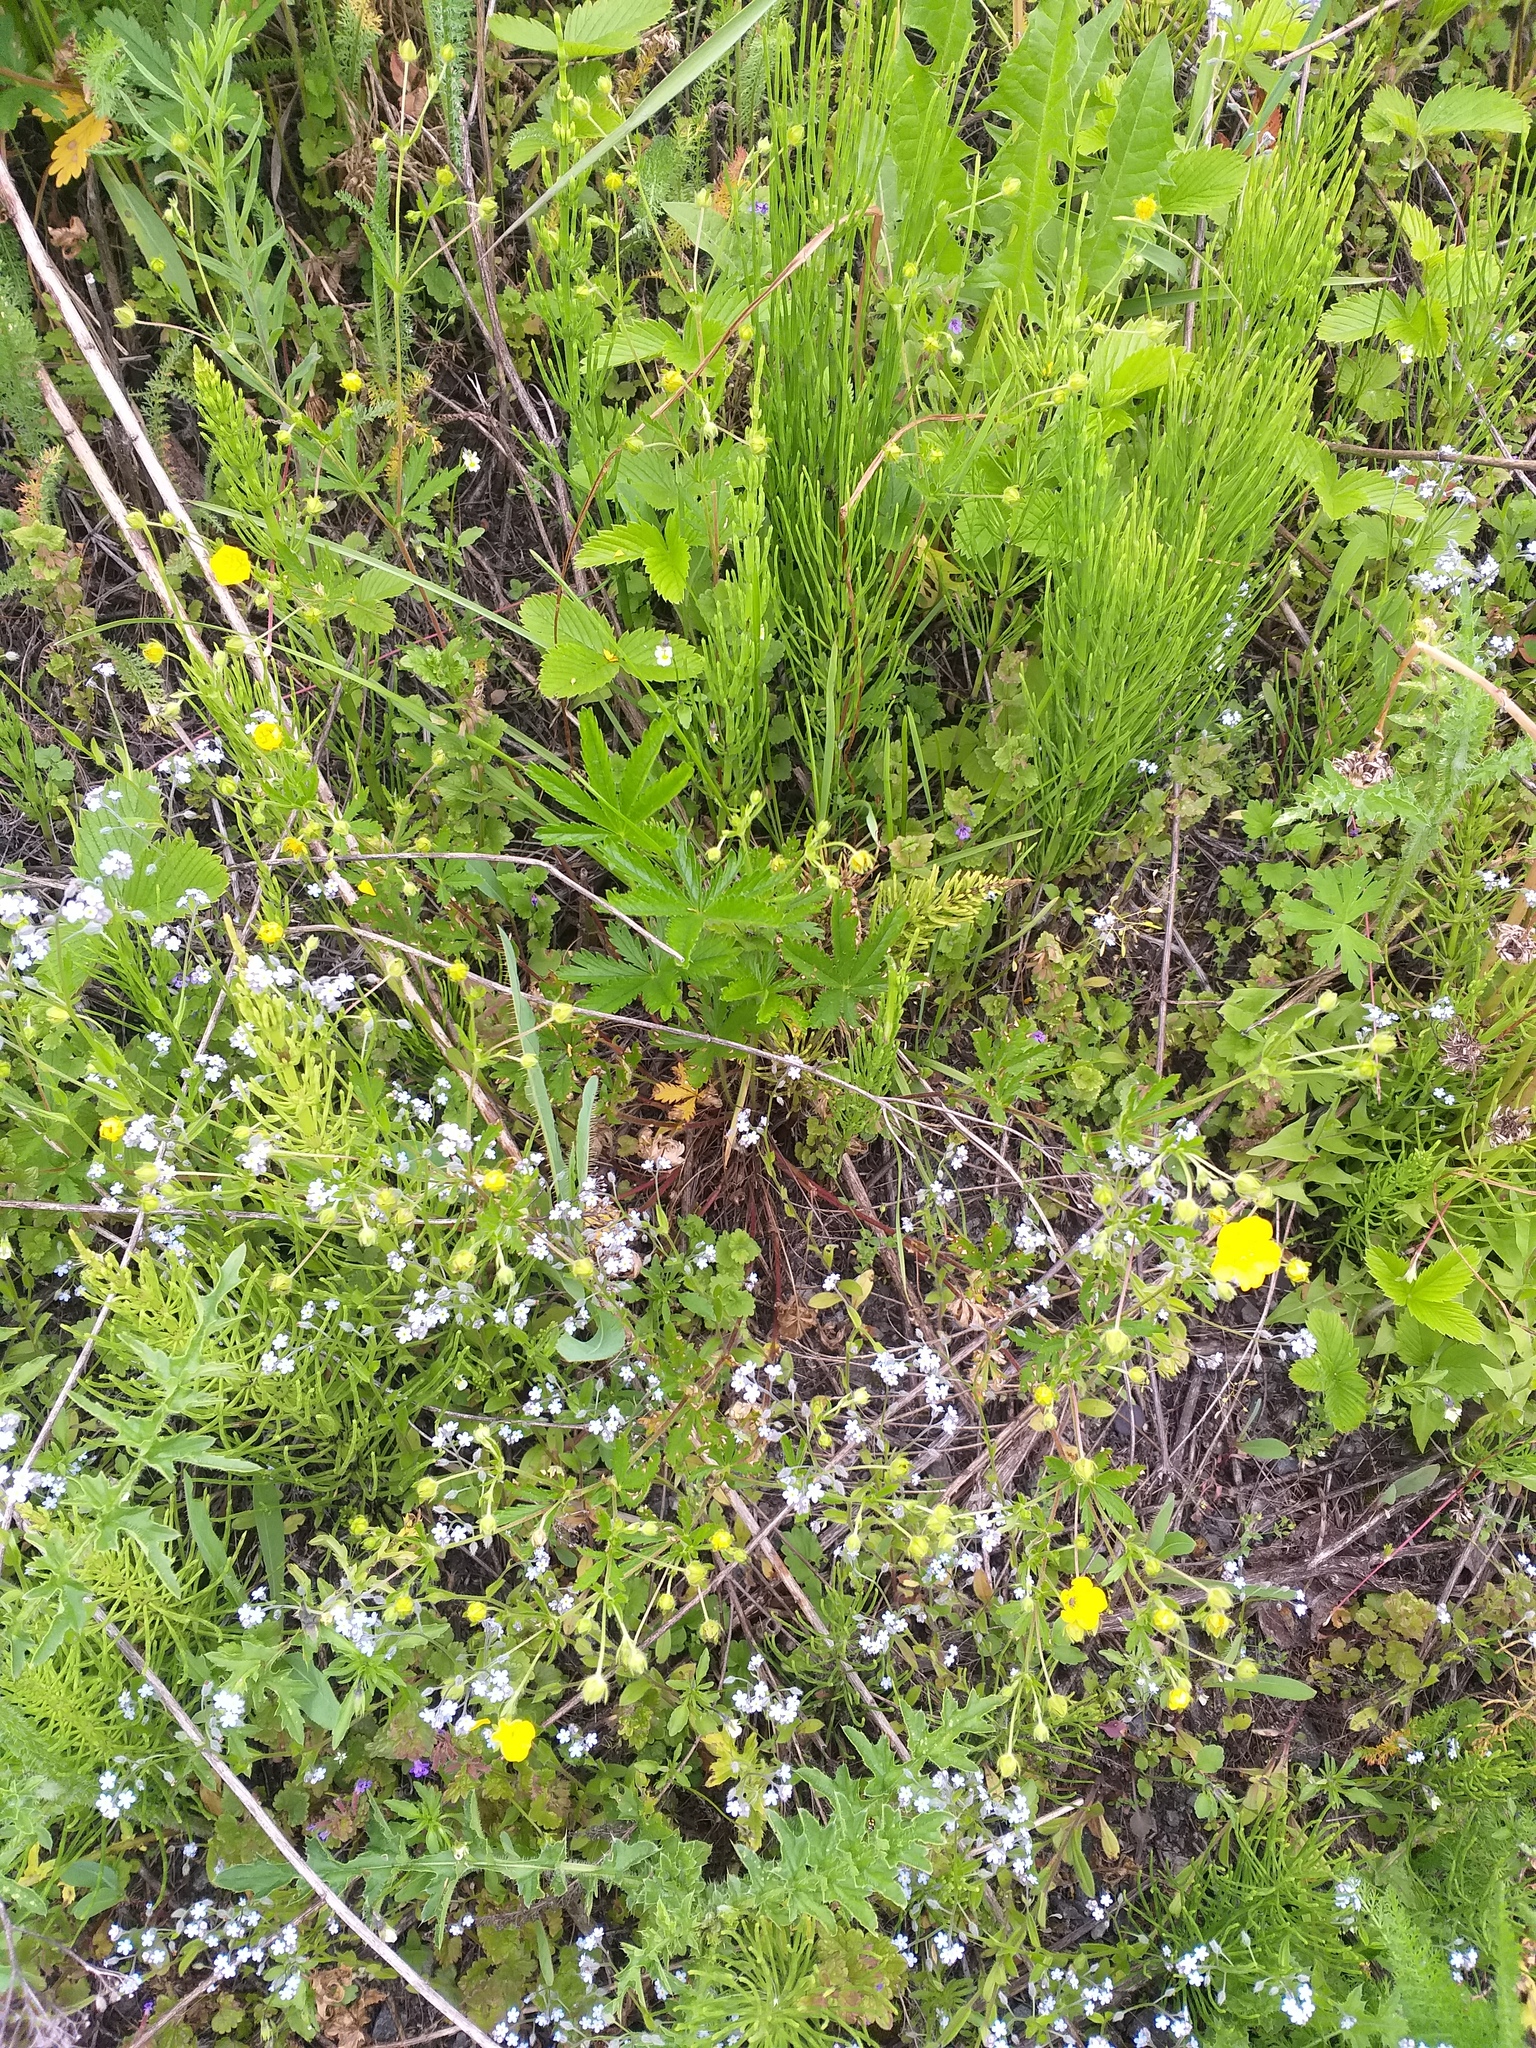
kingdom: Plantae
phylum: Tracheophyta
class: Magnoliopsida
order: Rosales
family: Rosaceae
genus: Potentilla
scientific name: Potentilla thuringiaca
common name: European cinquefoil
